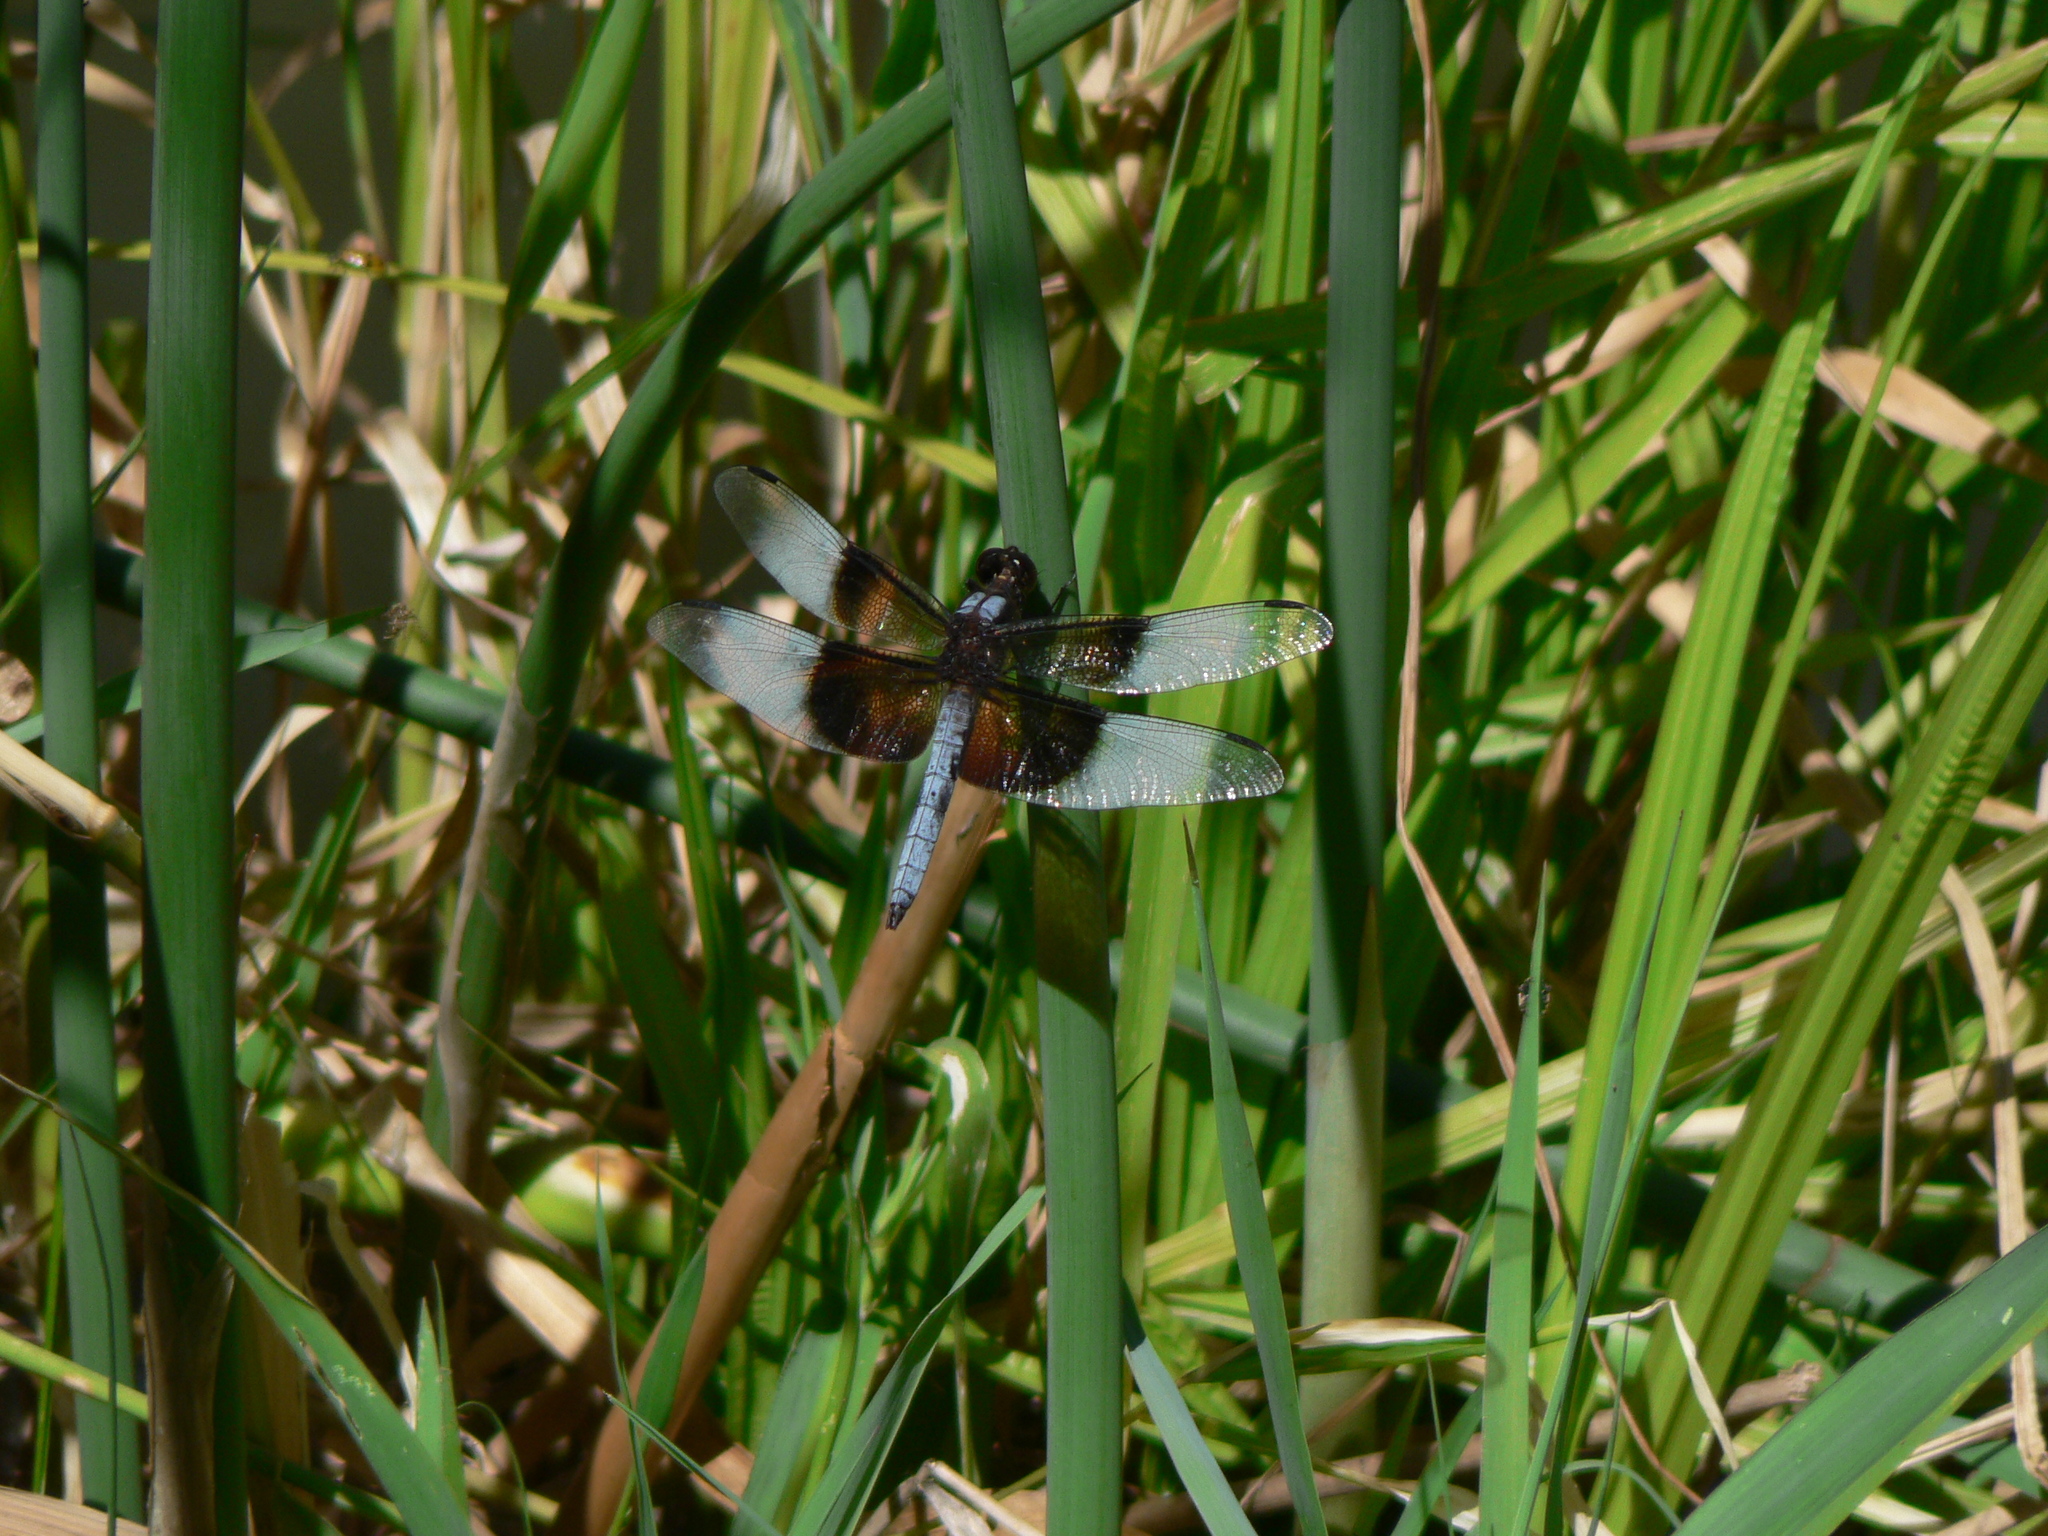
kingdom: Animalia
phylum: Arthropoda
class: Insecta
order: Odonata
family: Libellulidae
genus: Libellula
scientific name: Libellula luctuosa
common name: Widow skimmer
